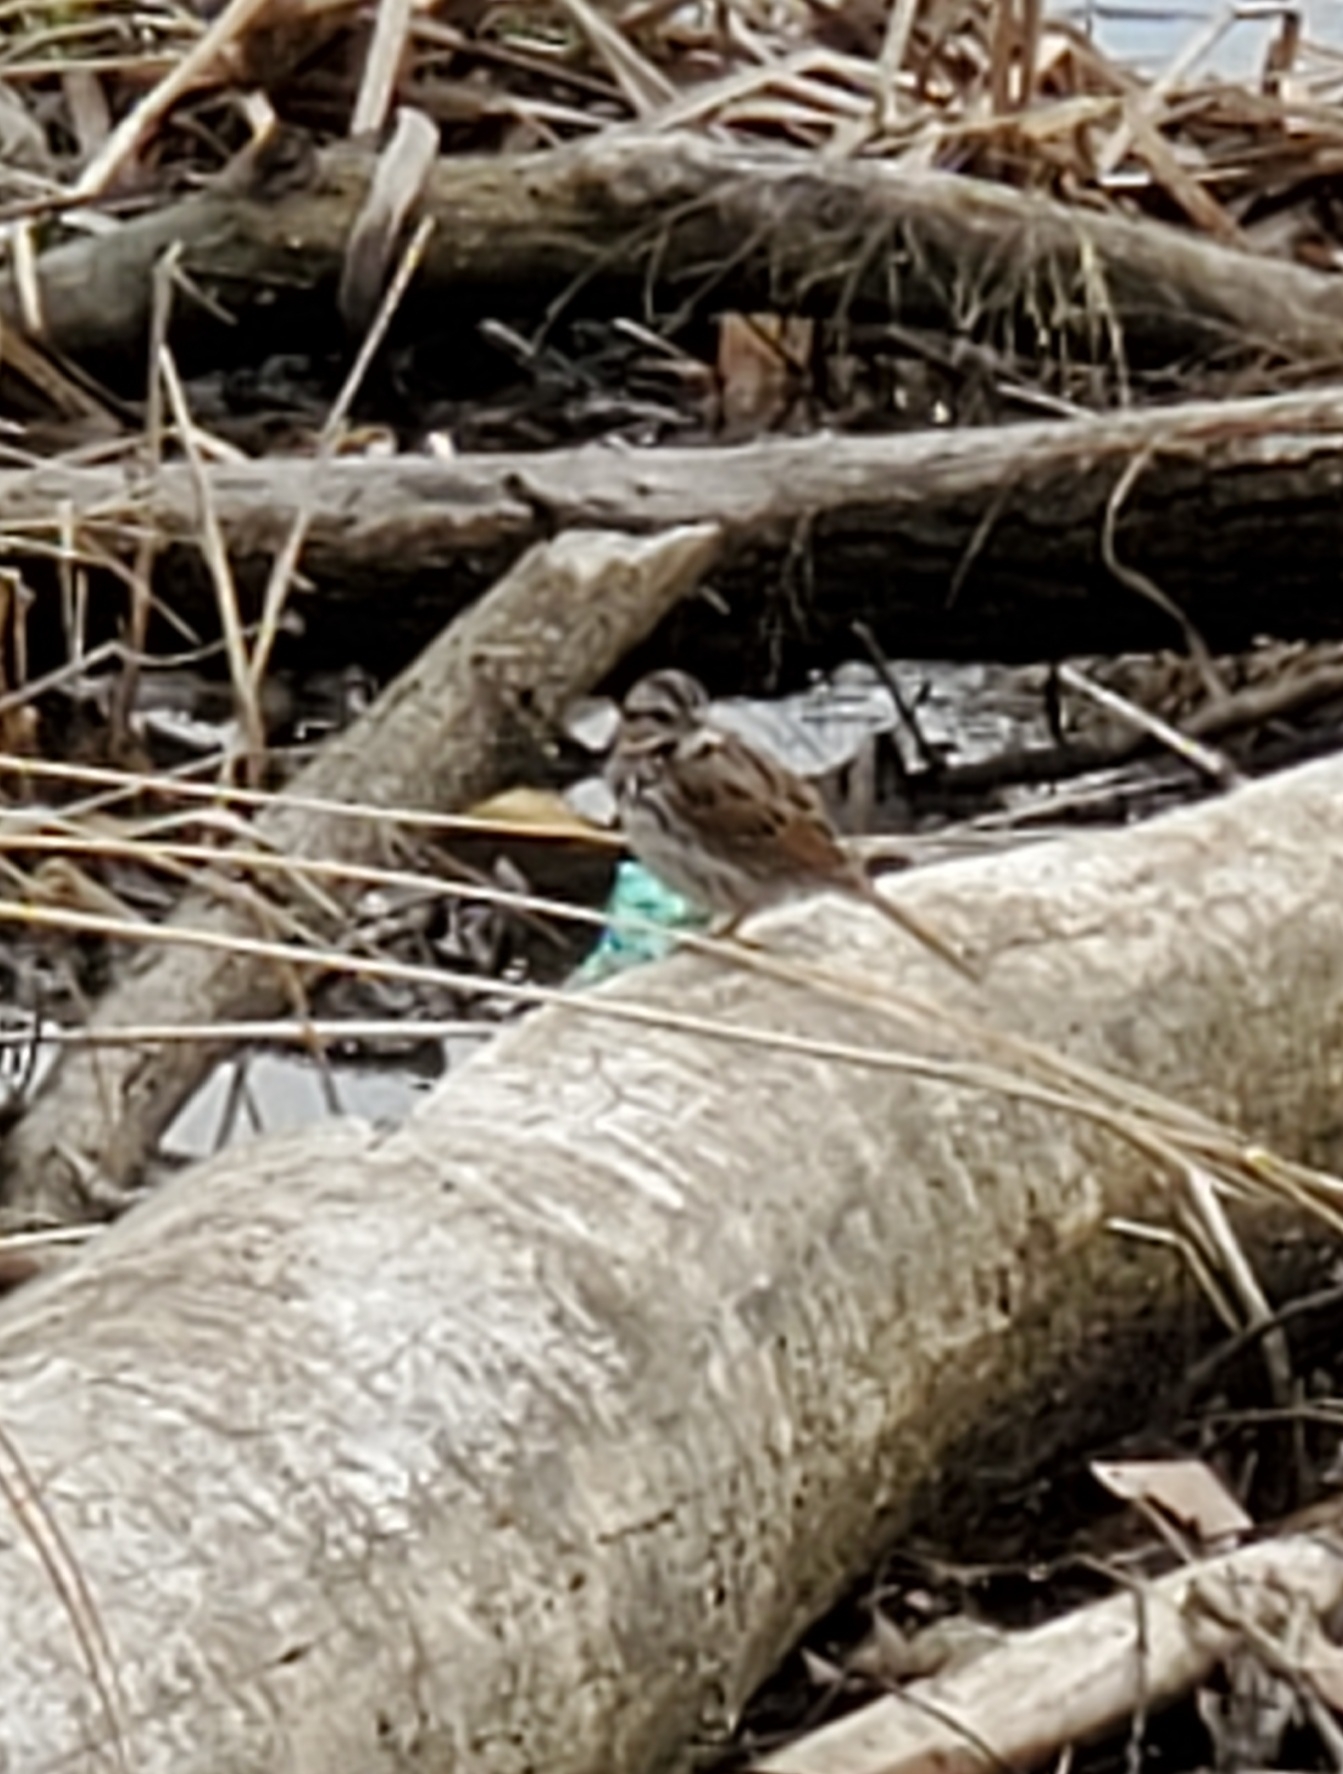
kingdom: Animalia
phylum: Chordata
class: Aves
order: Passeriformes
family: Passerellidae
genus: Melospiza
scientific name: Melospiza melodia
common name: Song sparrow
